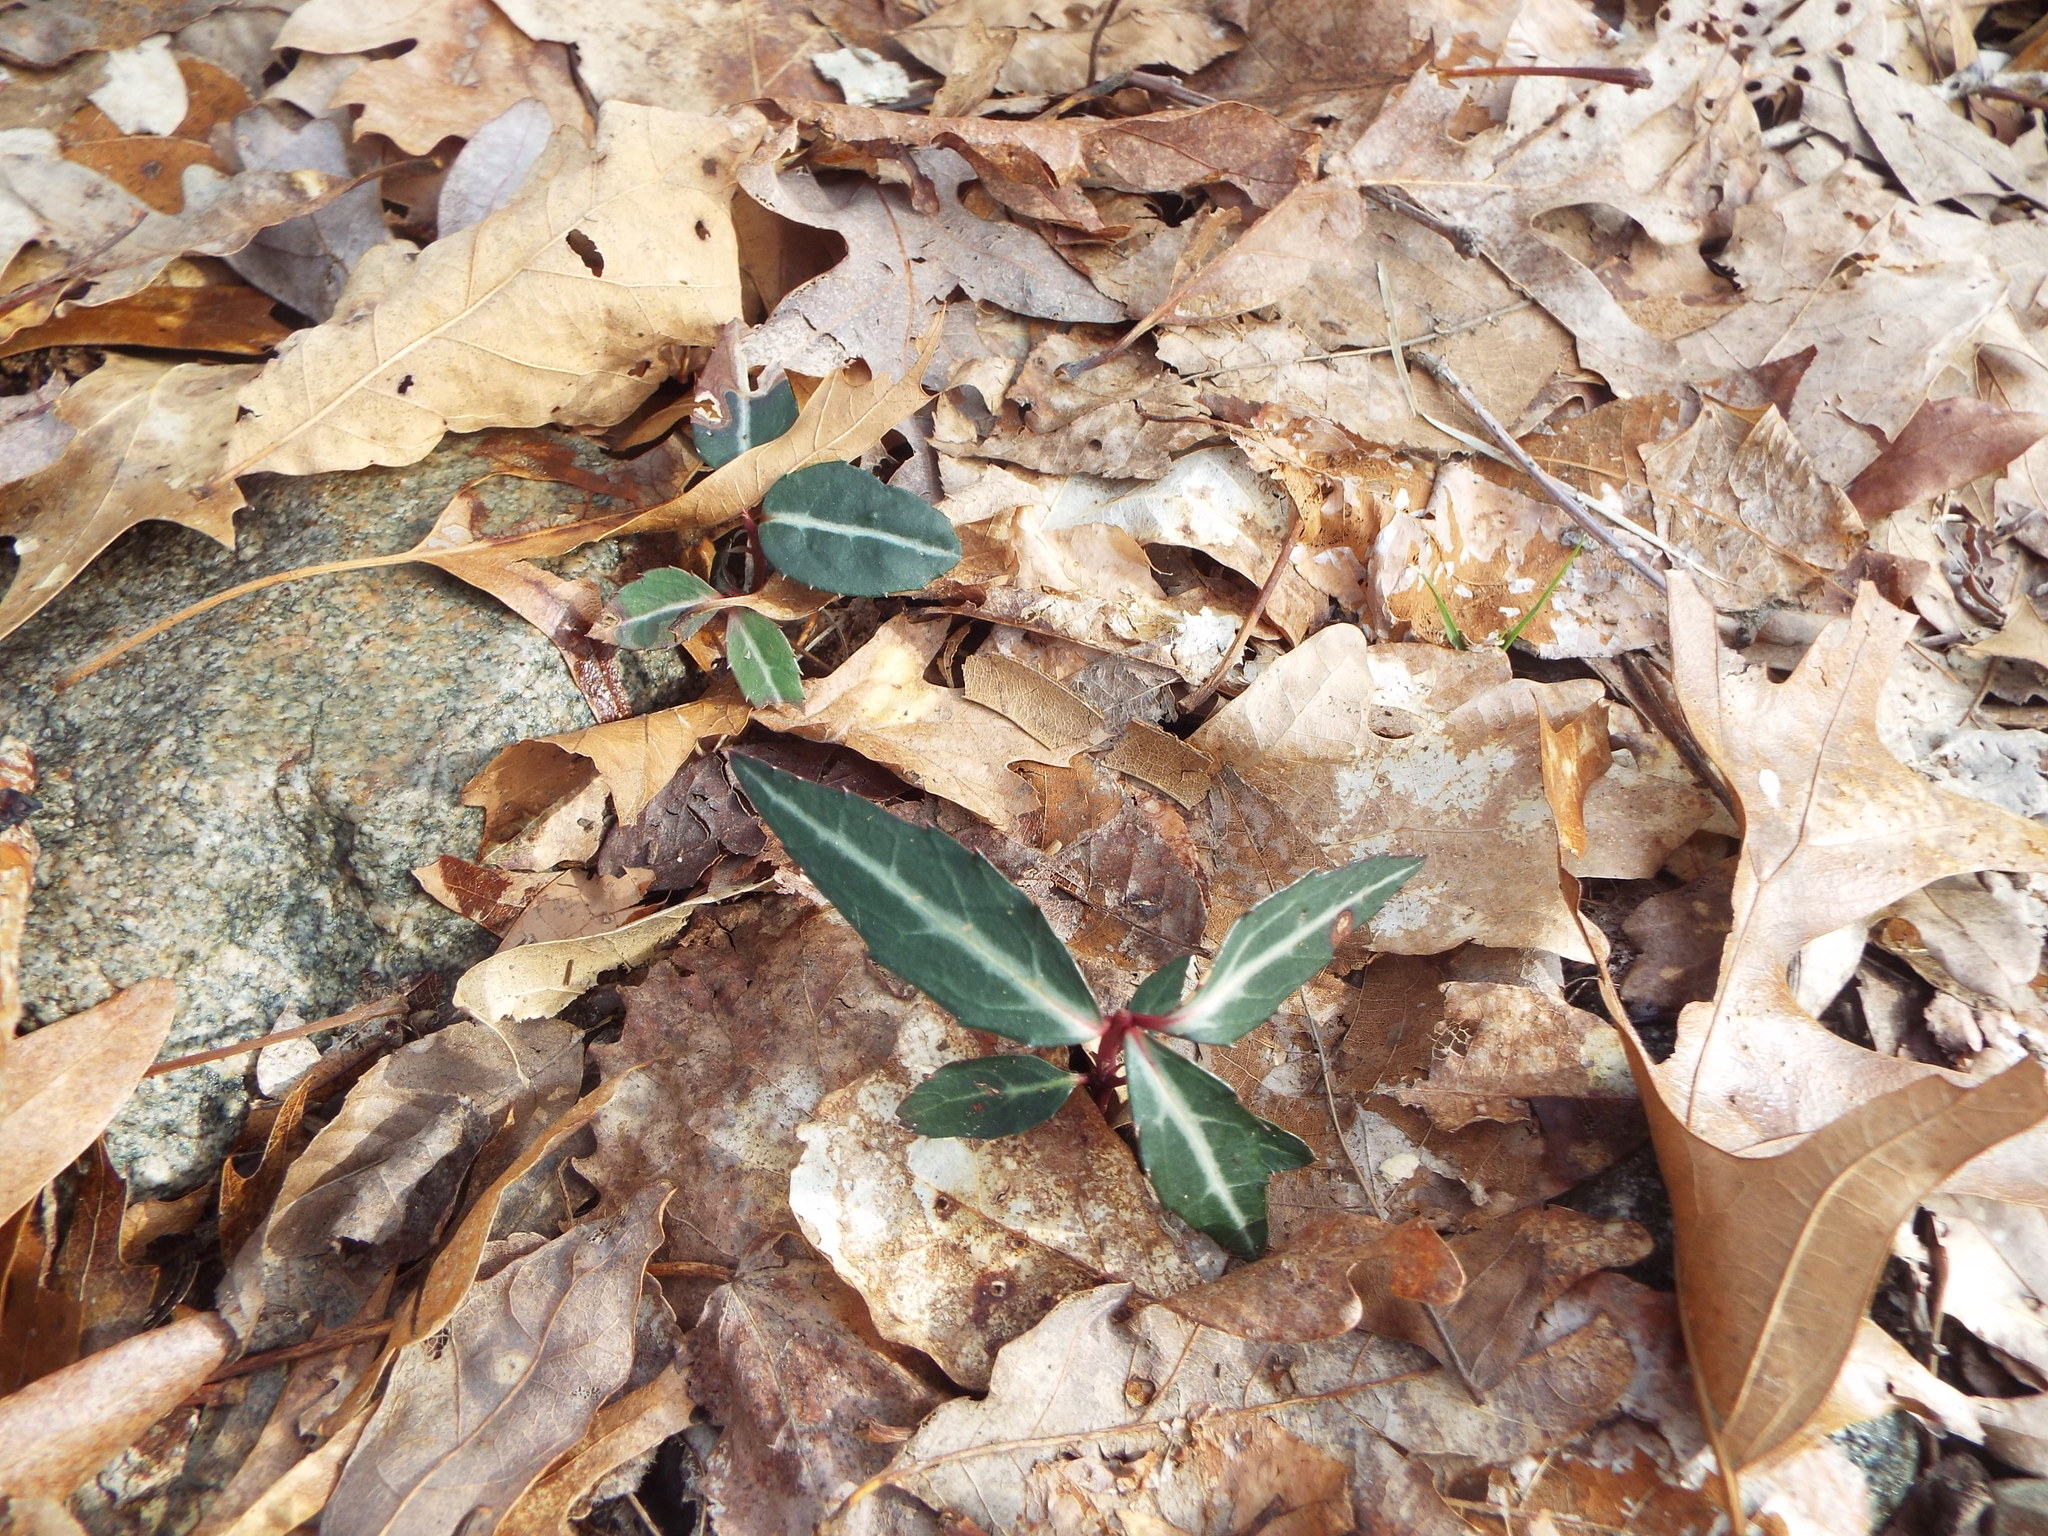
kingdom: Plantae
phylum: Tracheophyta
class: Magnoliopsida
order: Ericales
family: Ericaceae
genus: Chimaphila
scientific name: Chimaphila maculata
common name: Spotted pipsissewa
